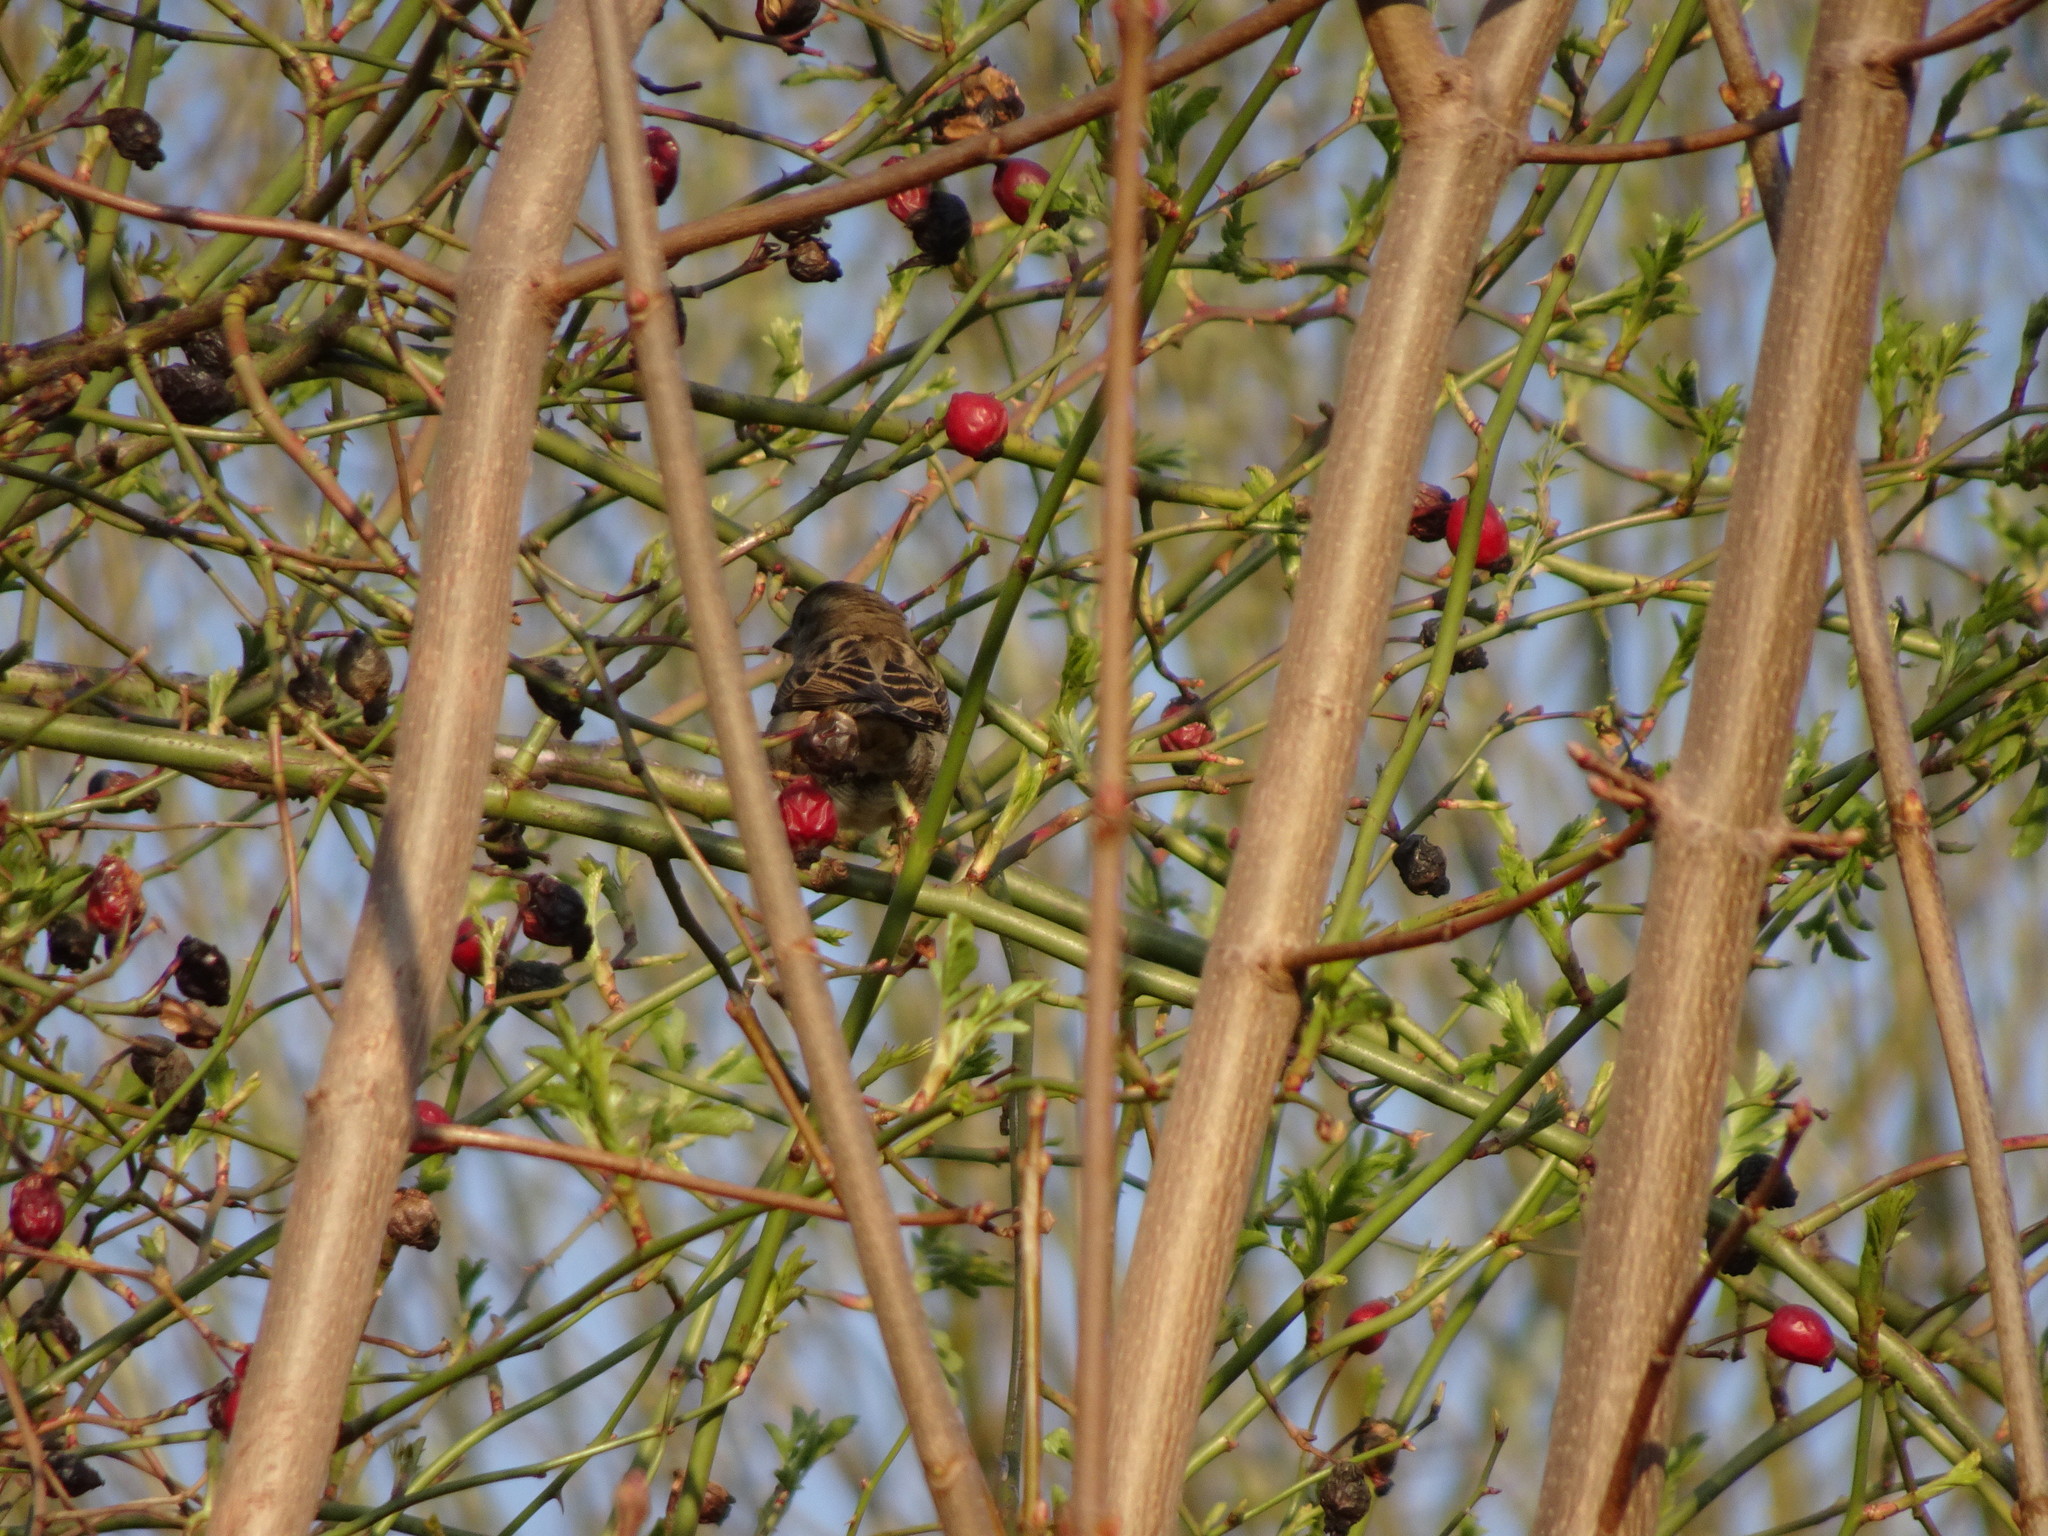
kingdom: Animalia
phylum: Chordata
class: Aves
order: Passeriformes
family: Passeridae
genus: Passer
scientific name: Passer montanus
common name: Eurasian tree sparrow
